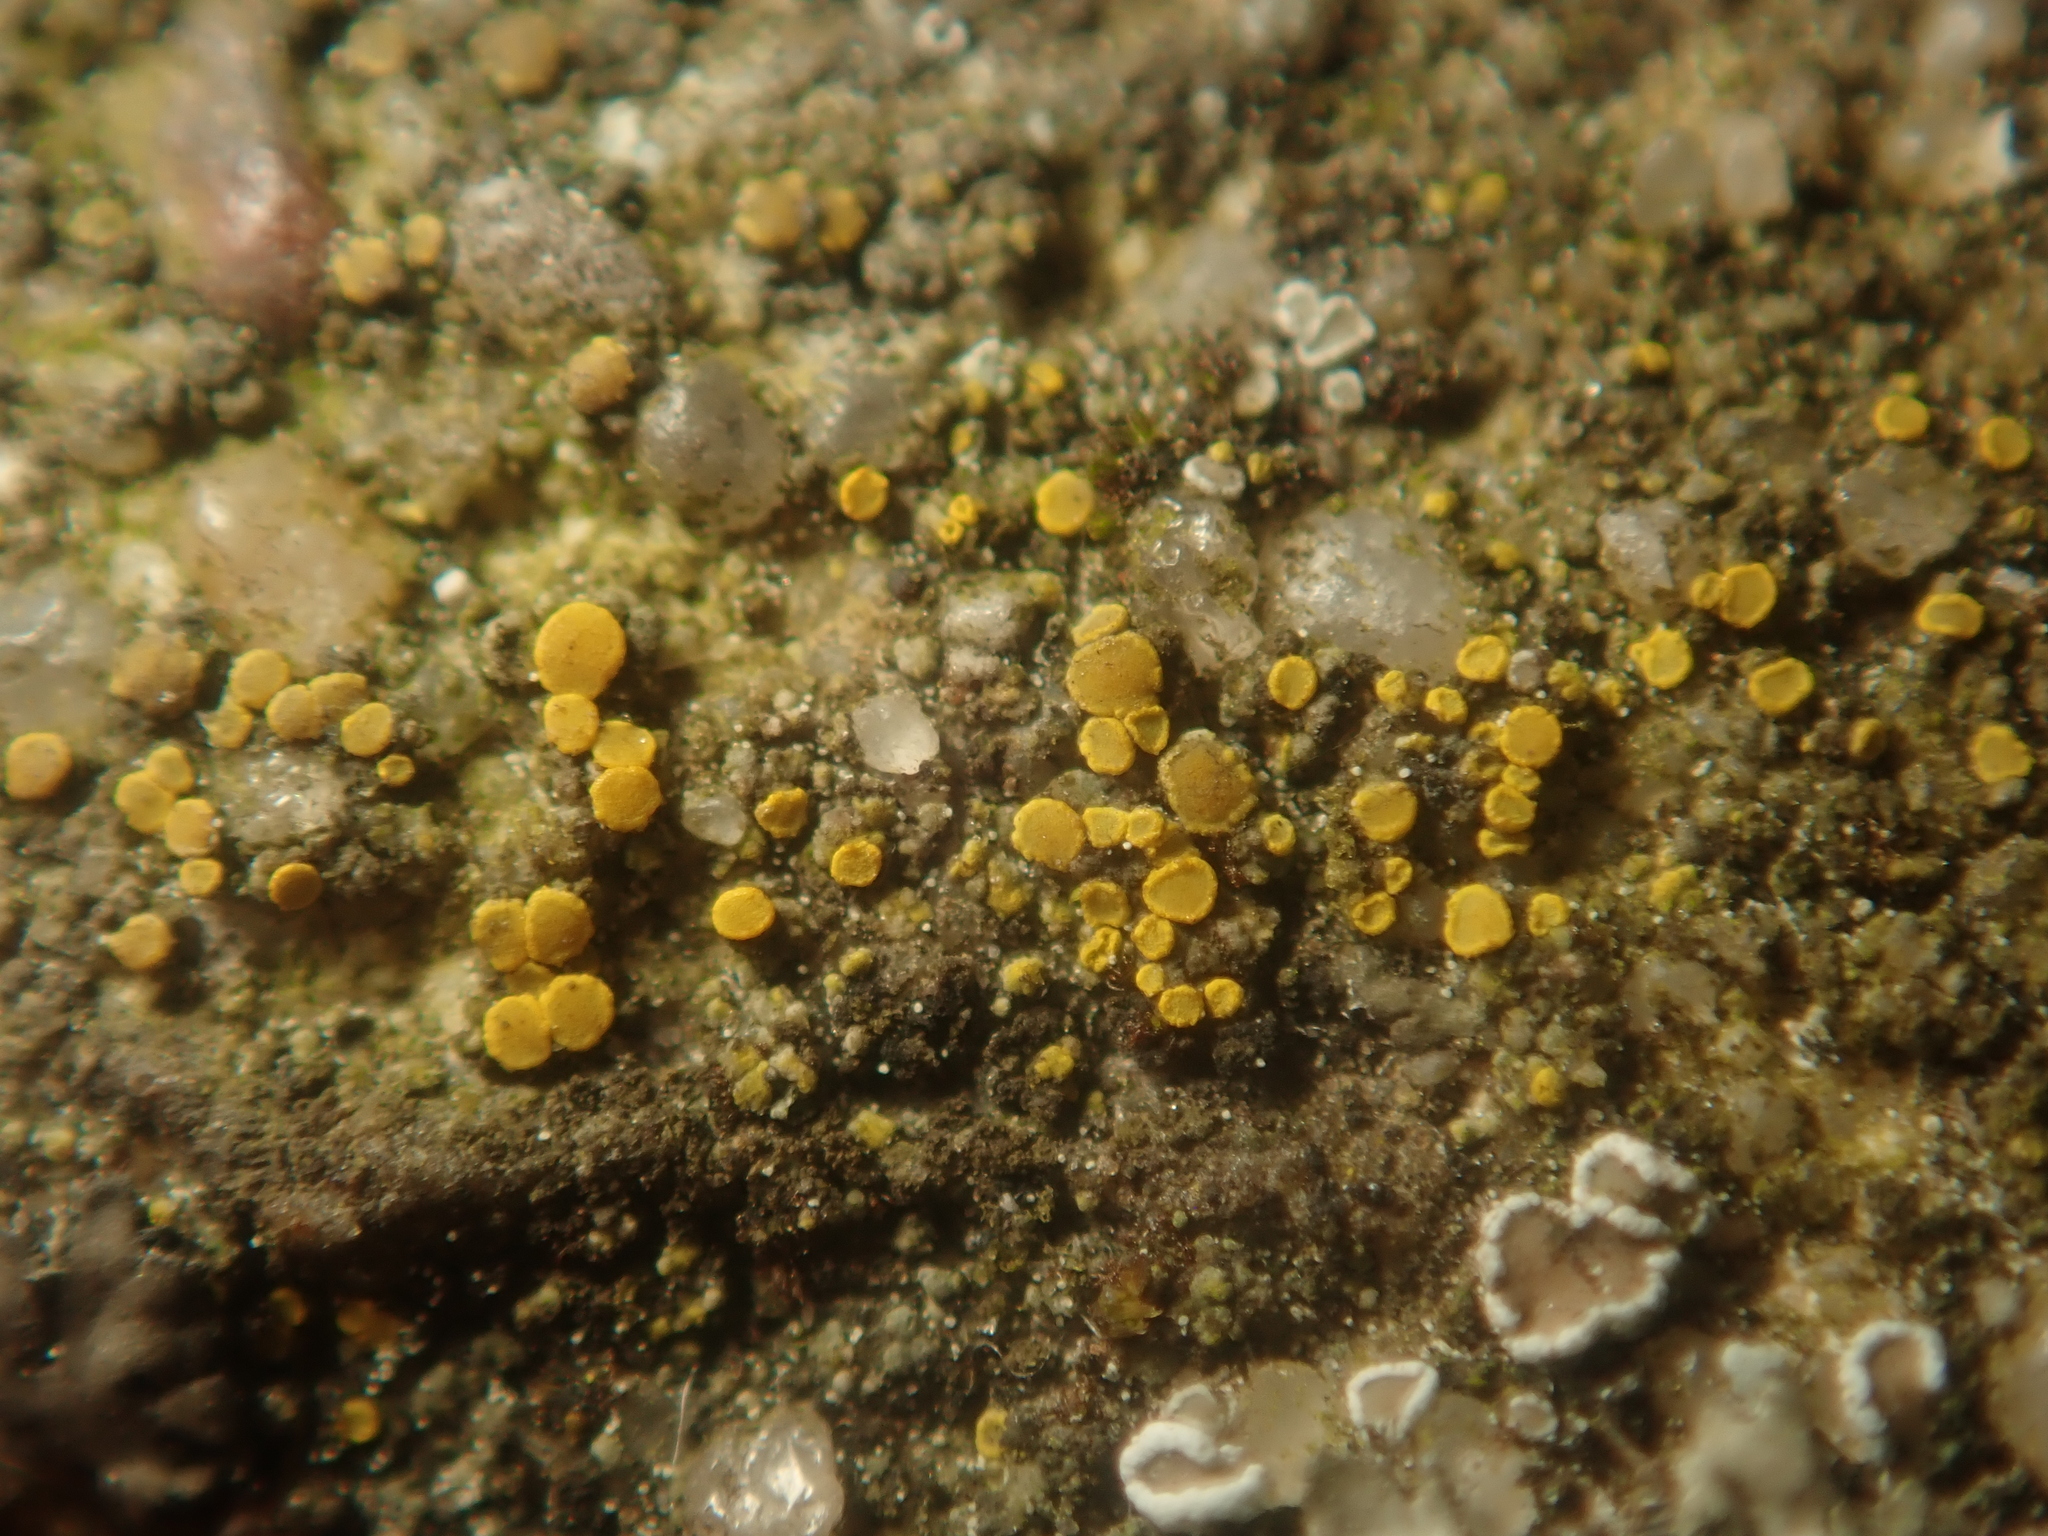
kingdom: Fungi
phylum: Ascomycota
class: Candelariomycetes
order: Candelariales
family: Candelariaceae
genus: Candelariella
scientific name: Candelariella aurella
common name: Hidden goldspeck lichen
